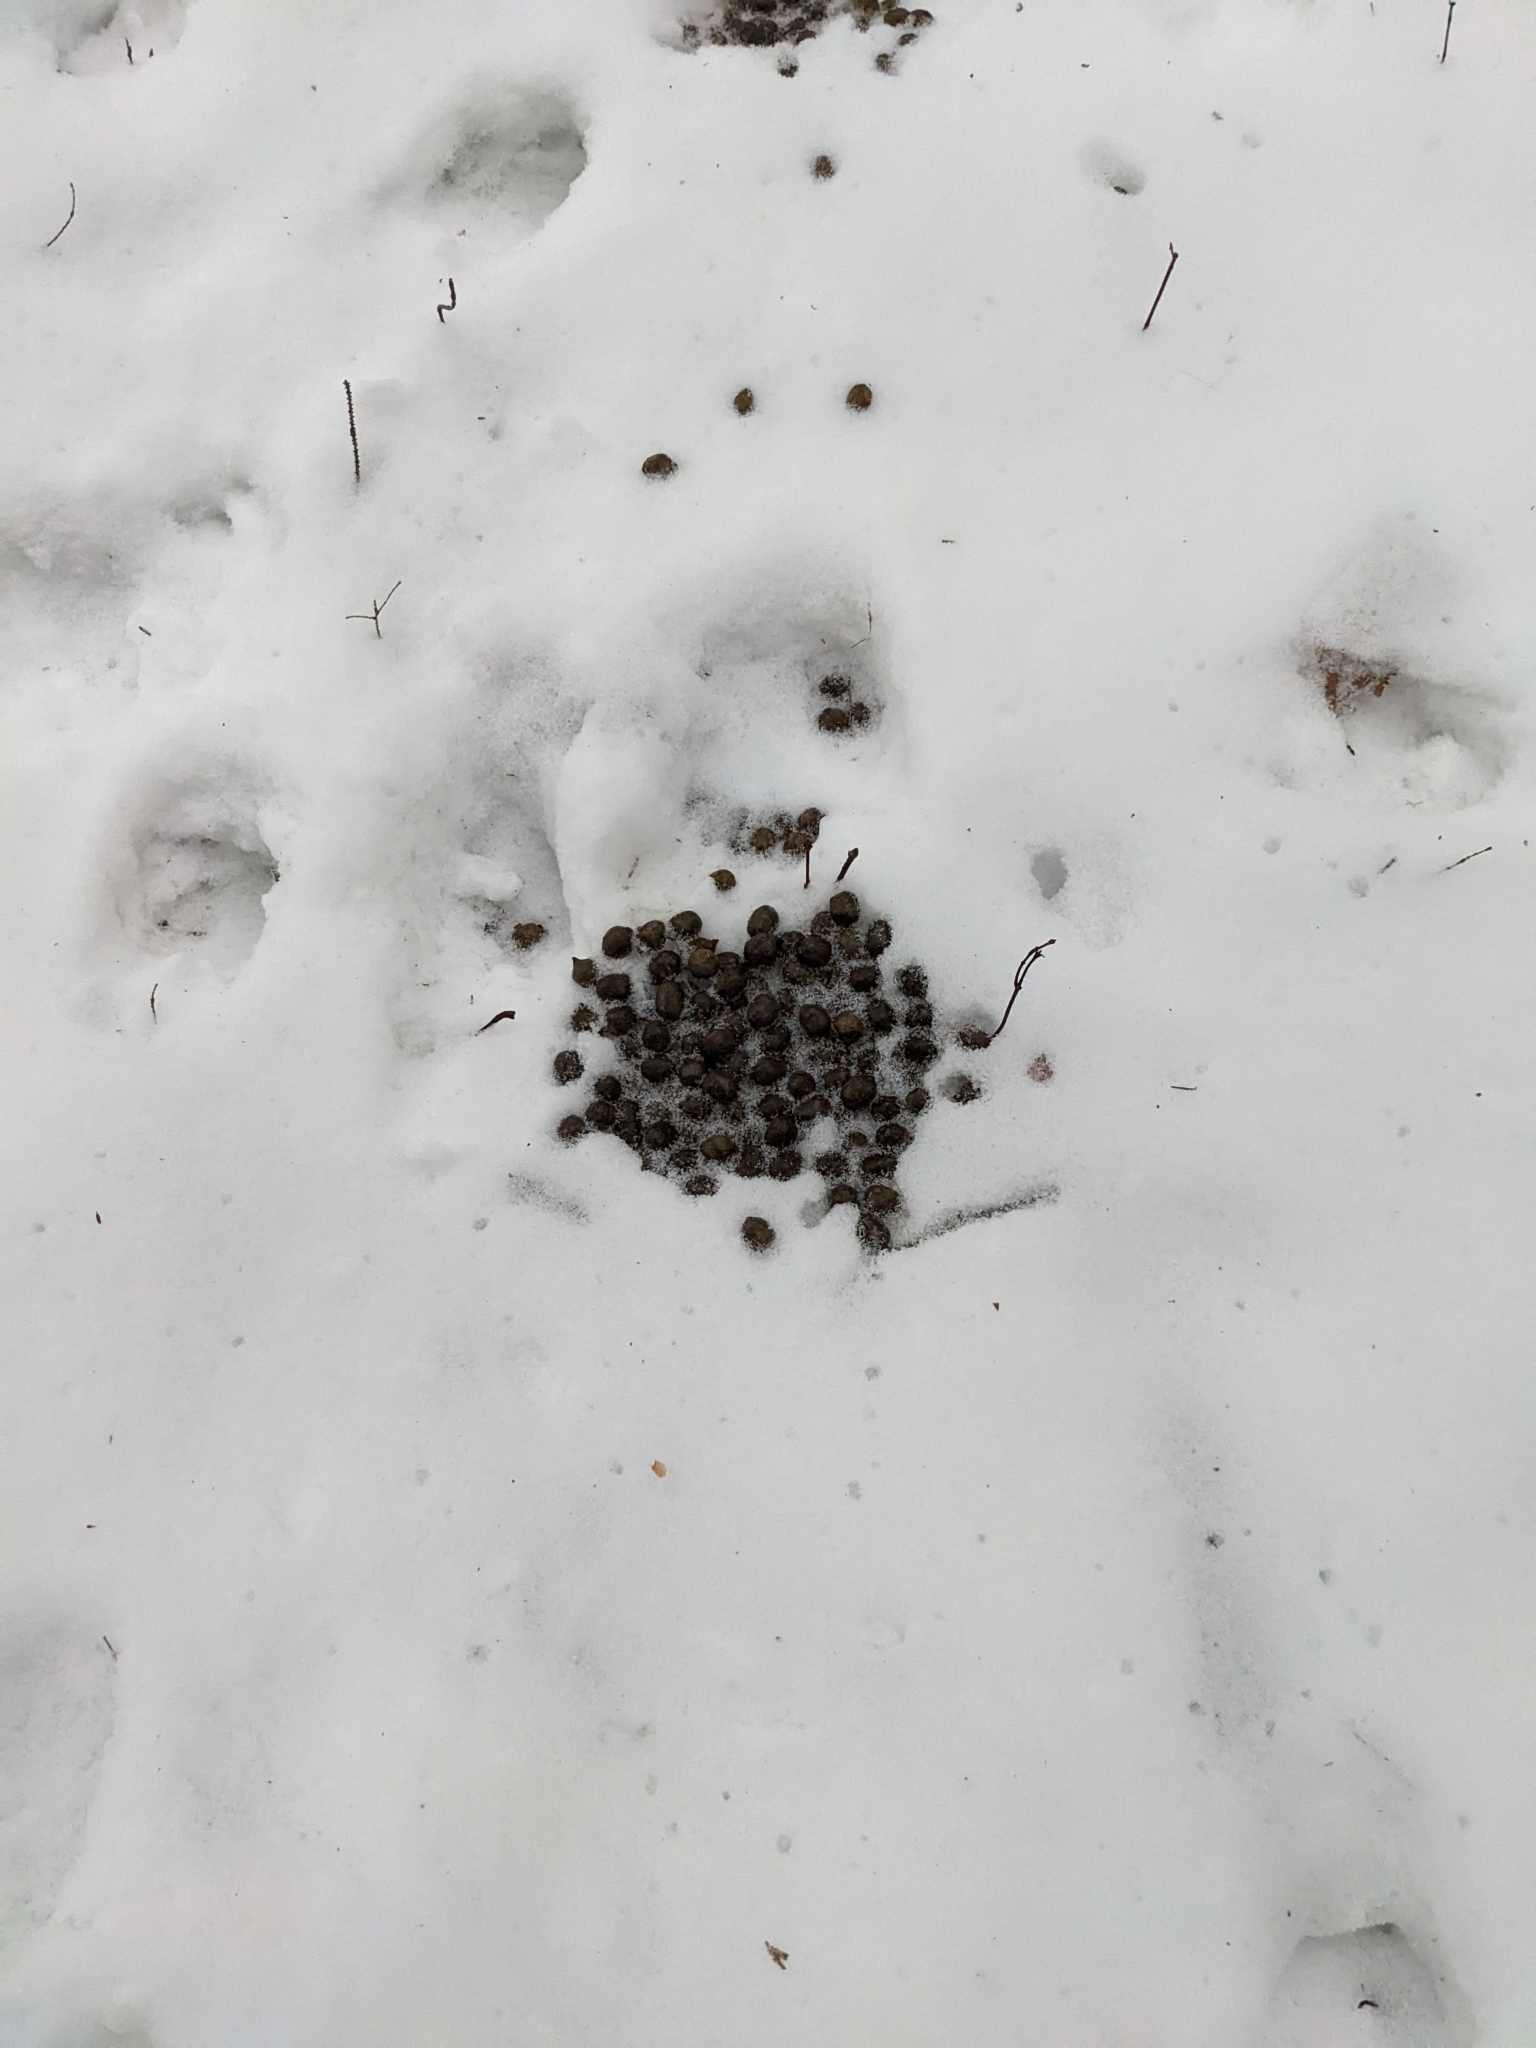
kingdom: Animalia
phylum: Chordata
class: Mammalia
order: Artiodactyla
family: Cervidae
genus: Odocoileus
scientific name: Odocoileus virginianus
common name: White-tailed deer
